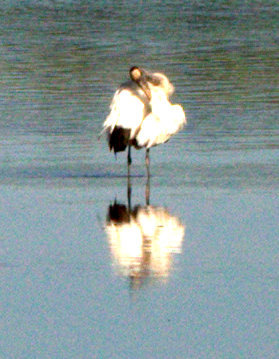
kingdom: Animalia
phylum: Chordata
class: Aves
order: Ciconiiformes
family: Ciconiidae
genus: Mycteria
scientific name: Mycteria americana
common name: Wood stork
